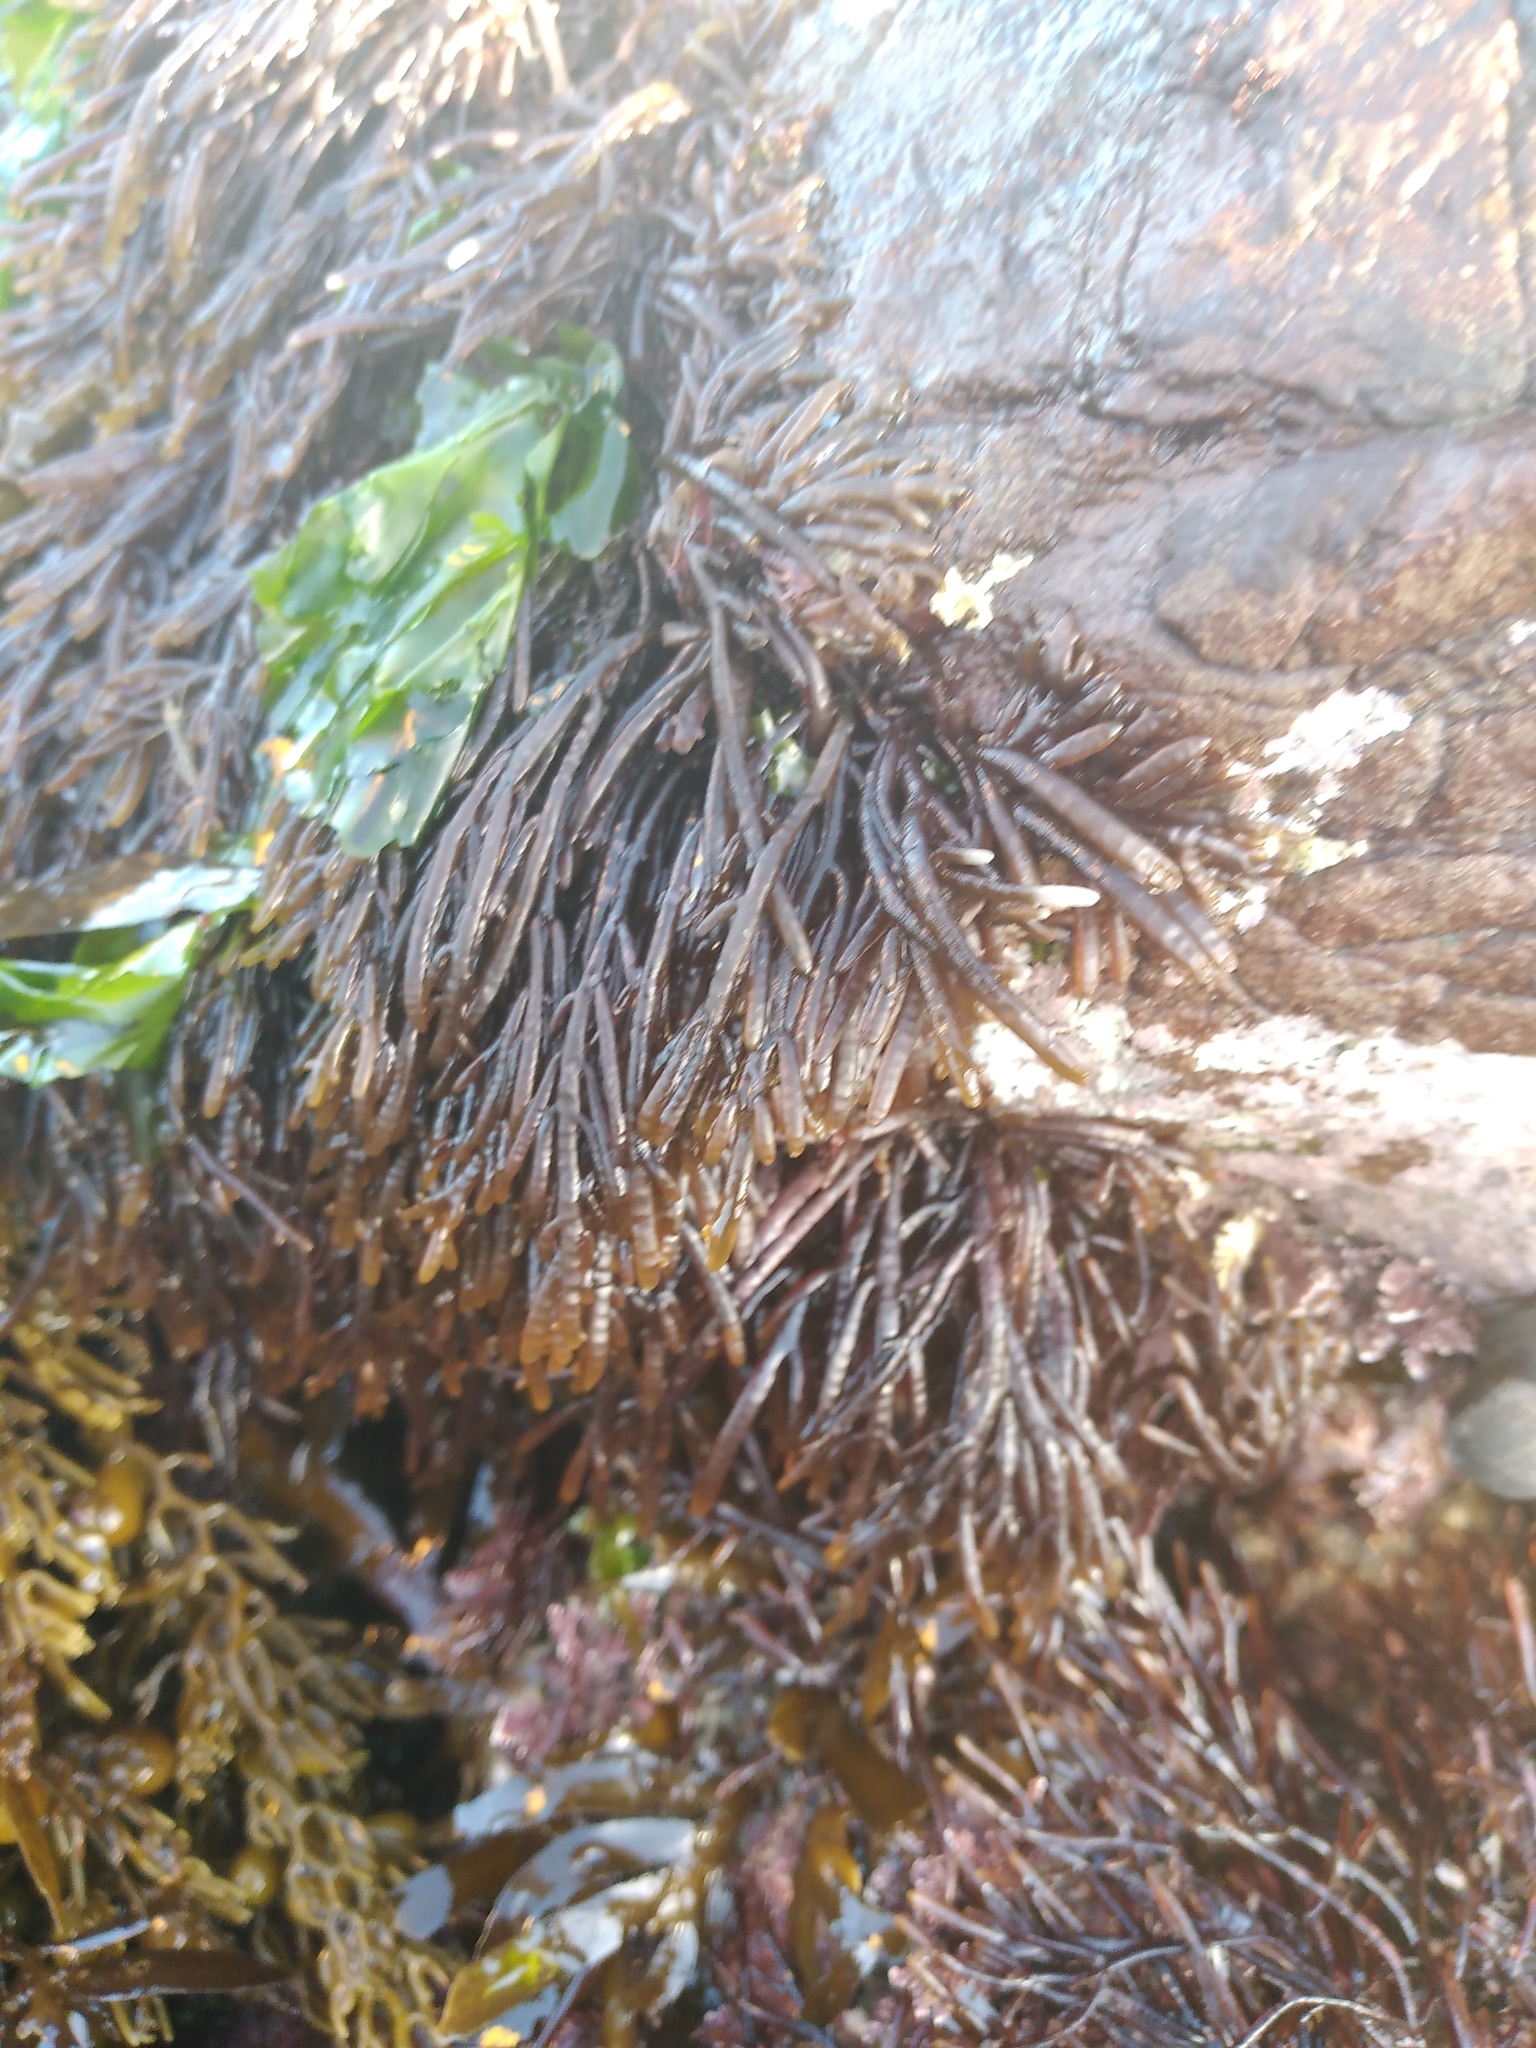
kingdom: Plantae
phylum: Rhodophyta
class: Florideophyceae
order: Rhodymeniales
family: Champiaceae
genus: Champia
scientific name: Champia novae-zelandiae
